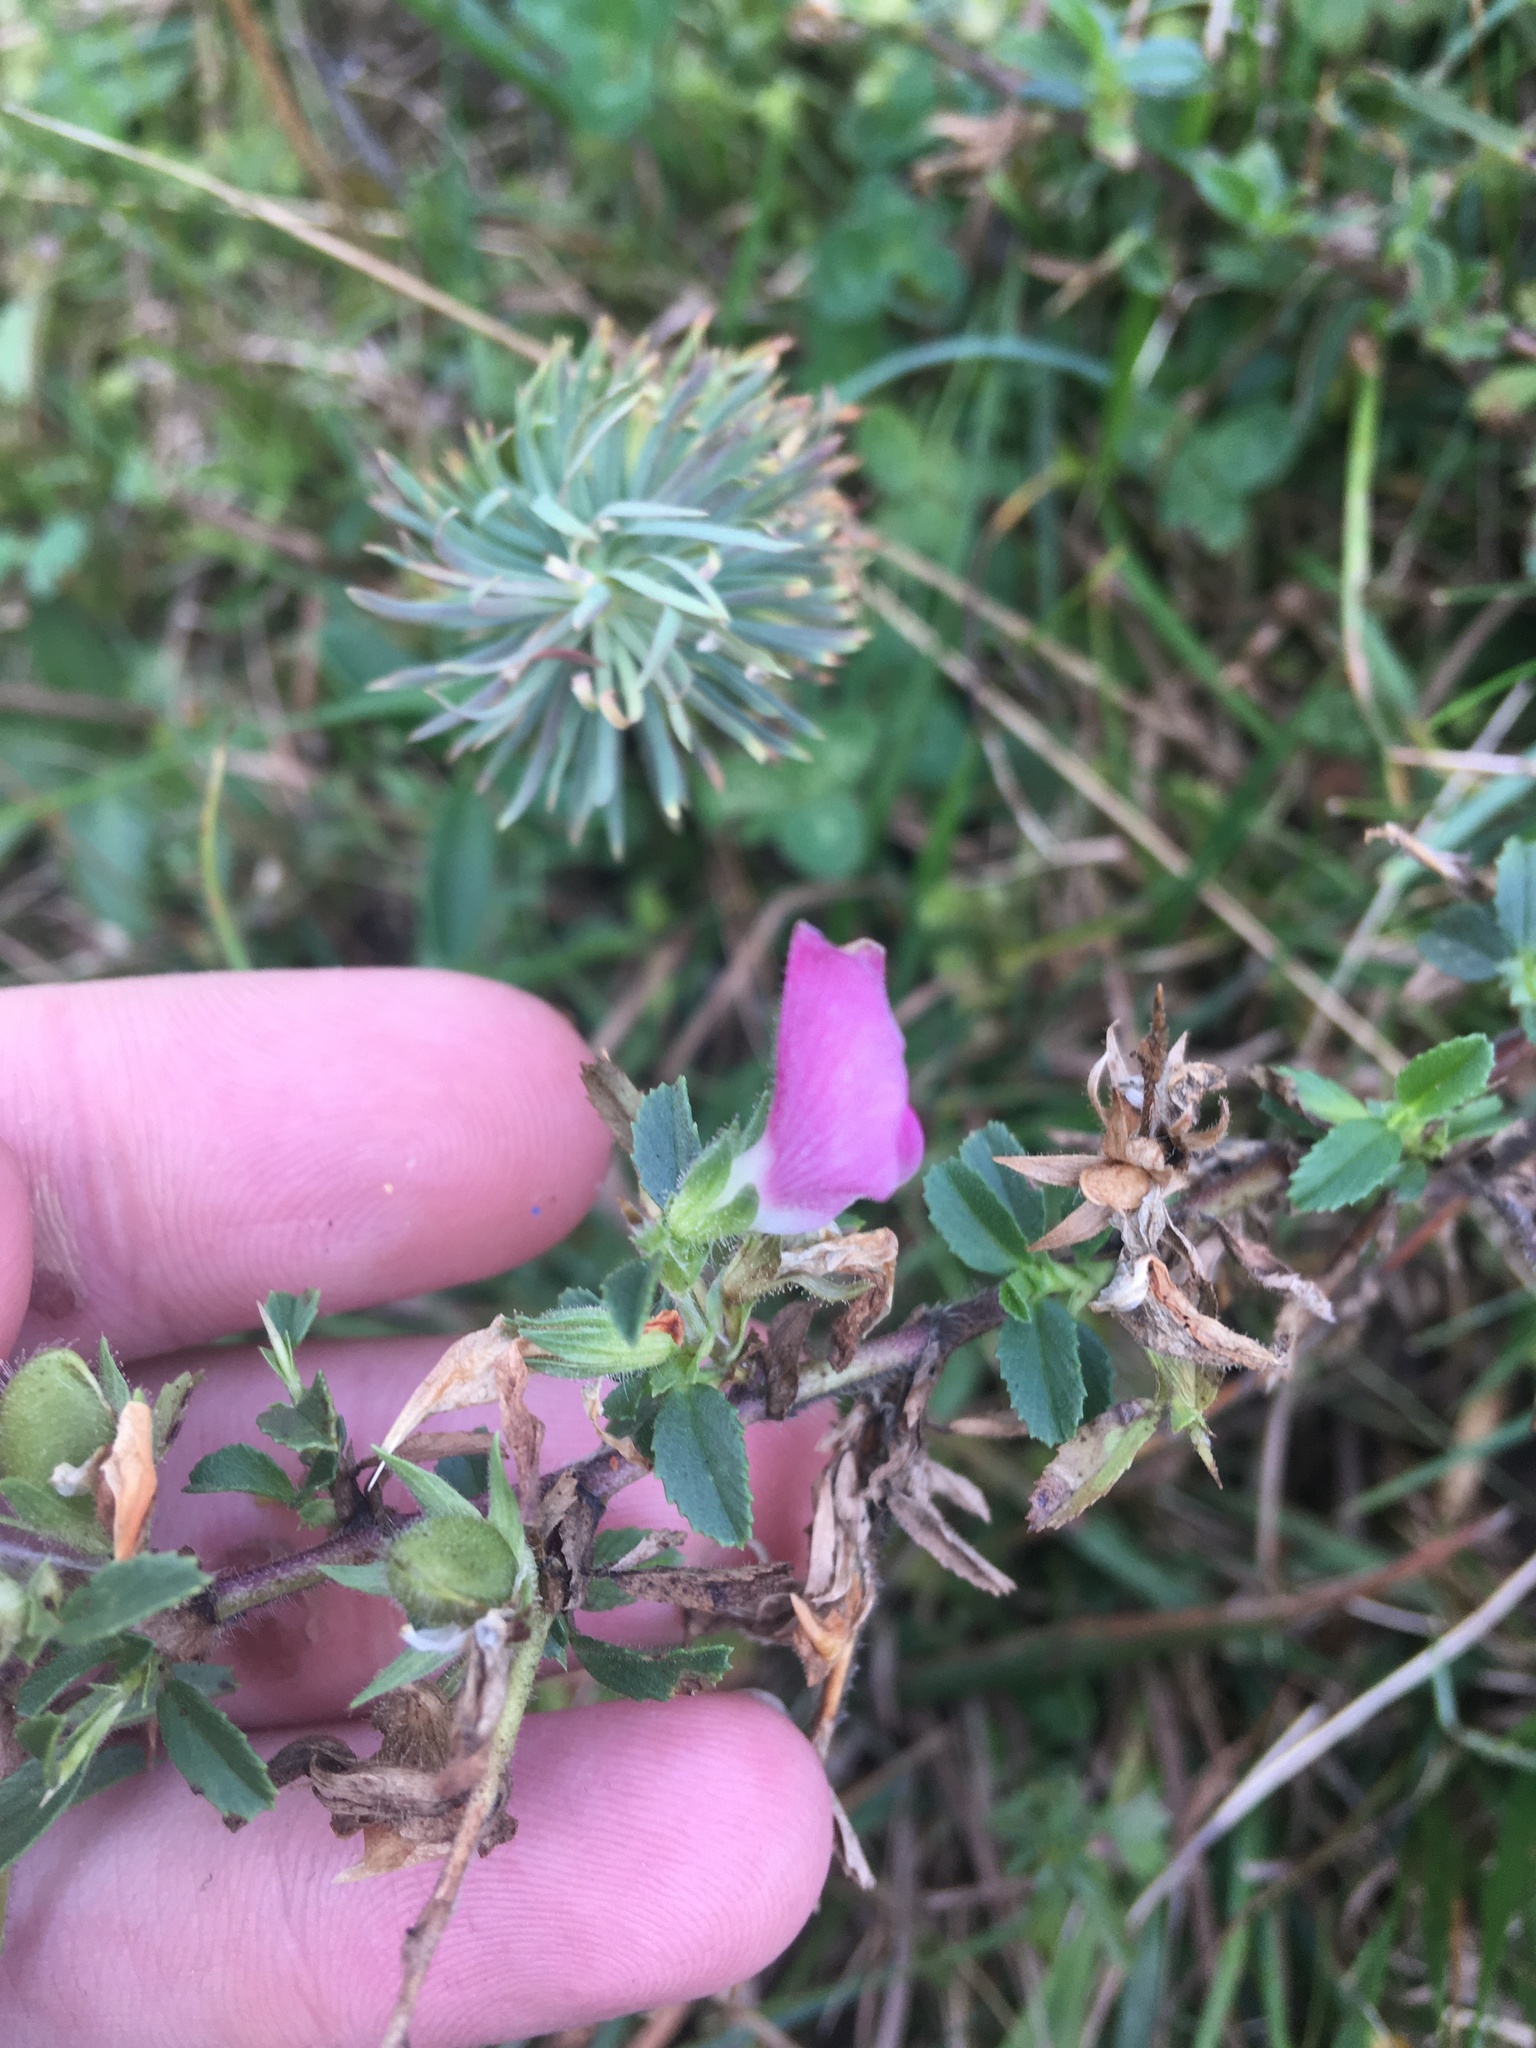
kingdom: Plantae
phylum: Tracheophyta
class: Magnoliopsida
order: Fabales
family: Fabaceae
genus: Ononis
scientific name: Ononis spinosa
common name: Spiny restharrow
